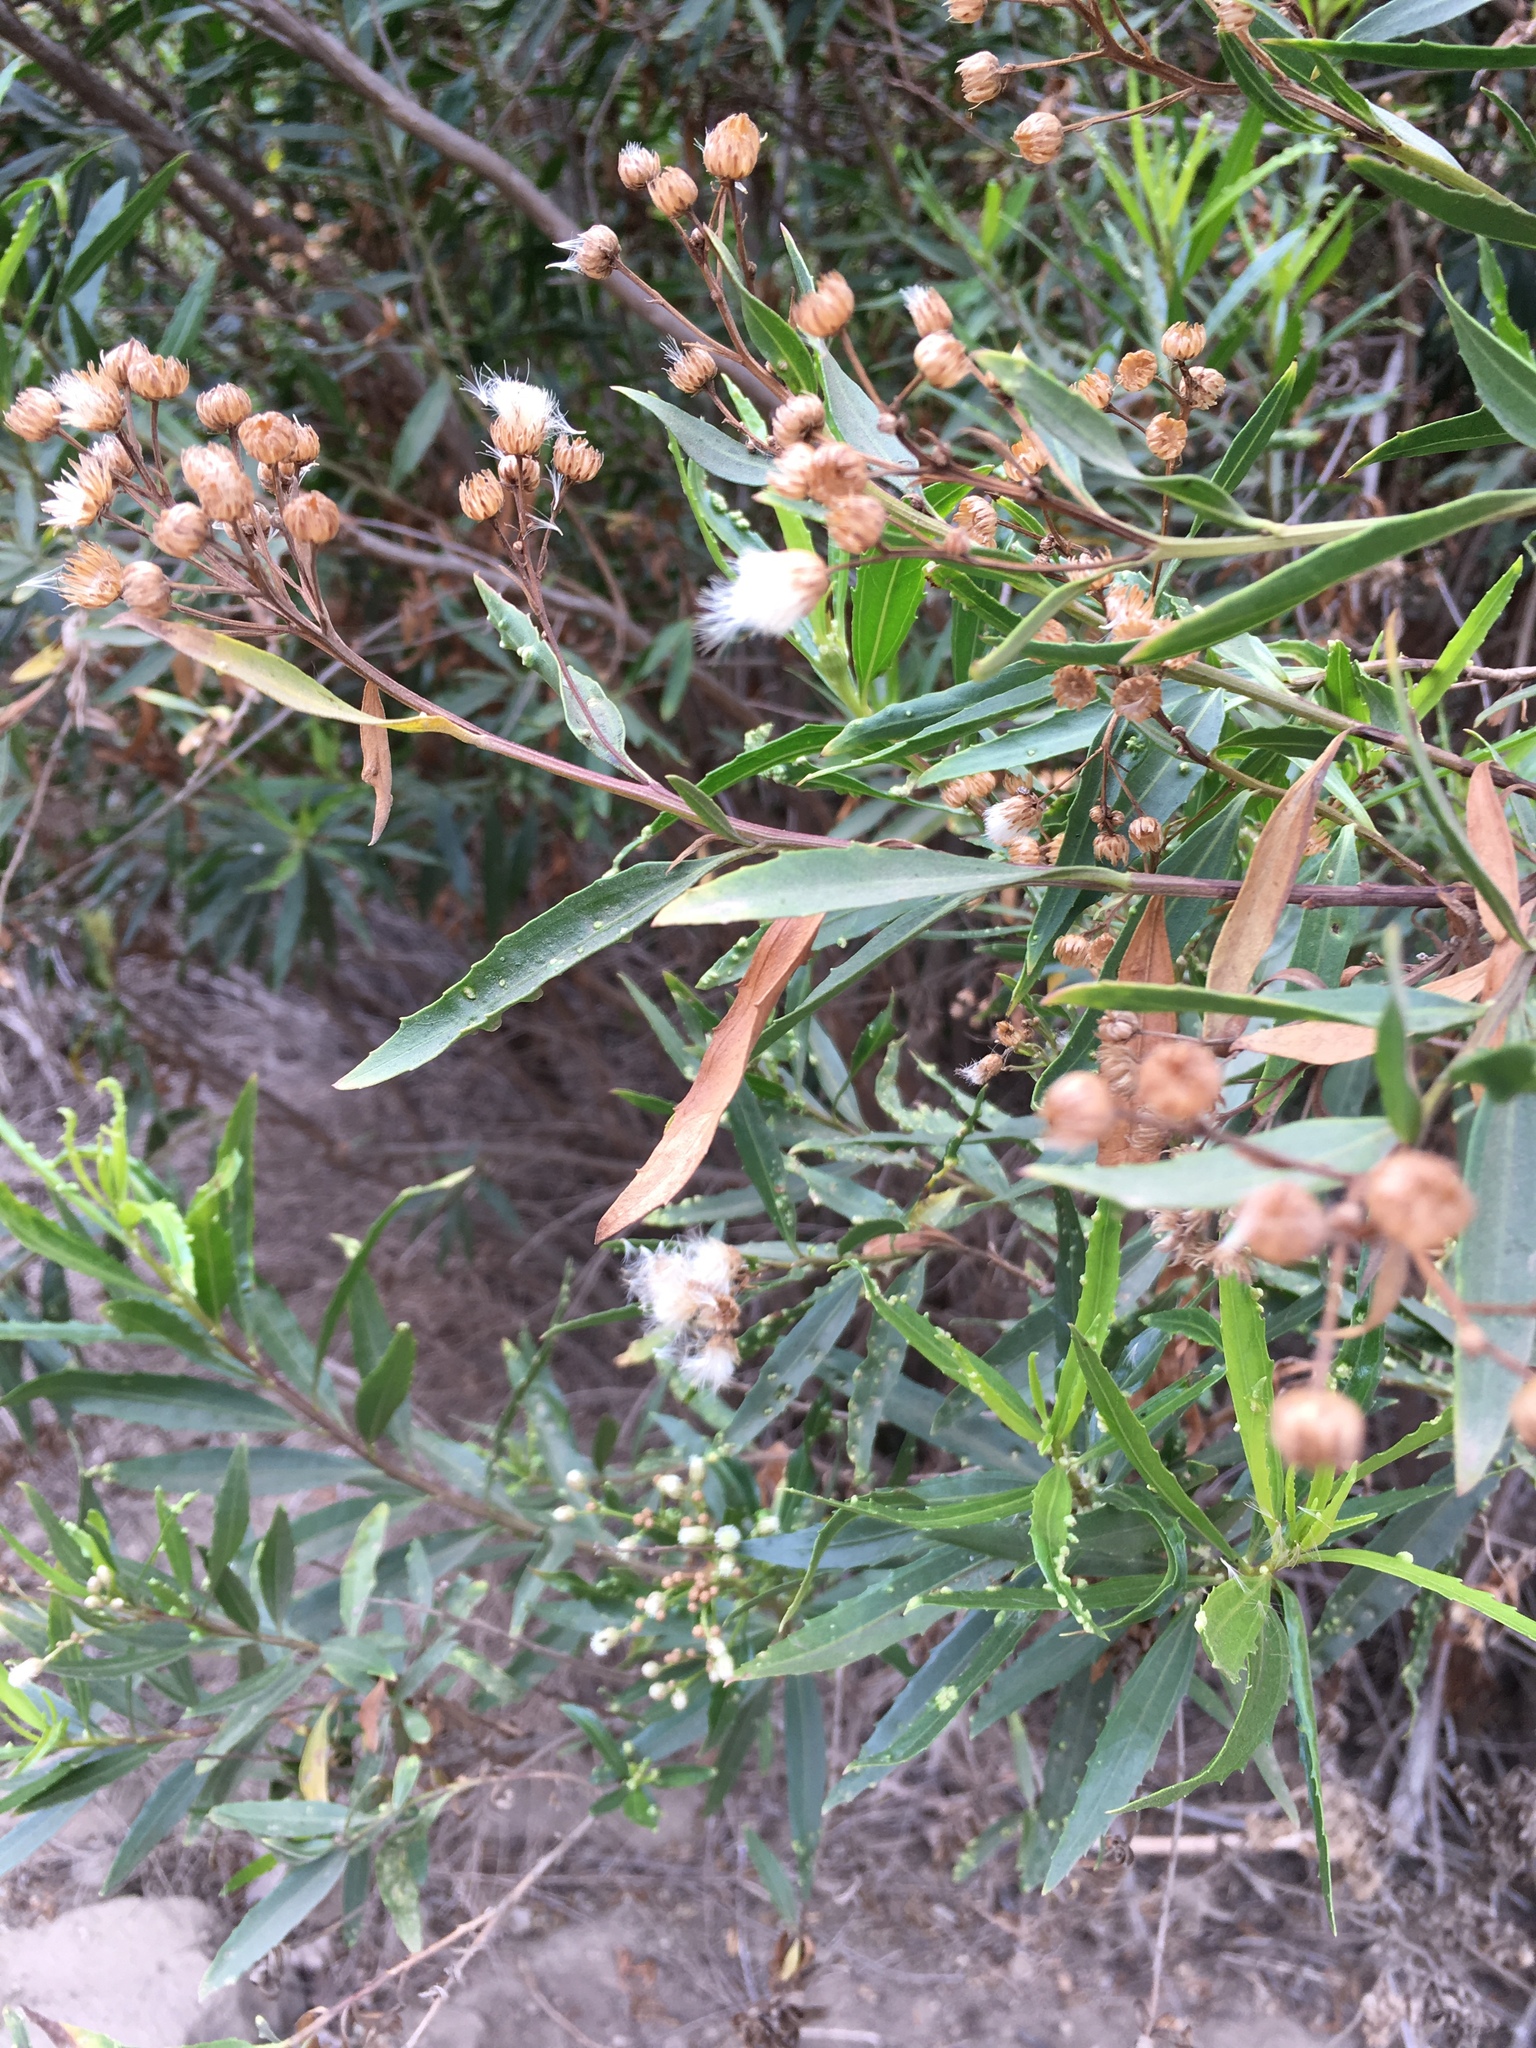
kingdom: Plantae
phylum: Tracheophyta
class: Magnoliopsida
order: Asterales
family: Asteraceae
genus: Baccharis
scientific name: Baccharis salicifolia
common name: Sticky baccharis
